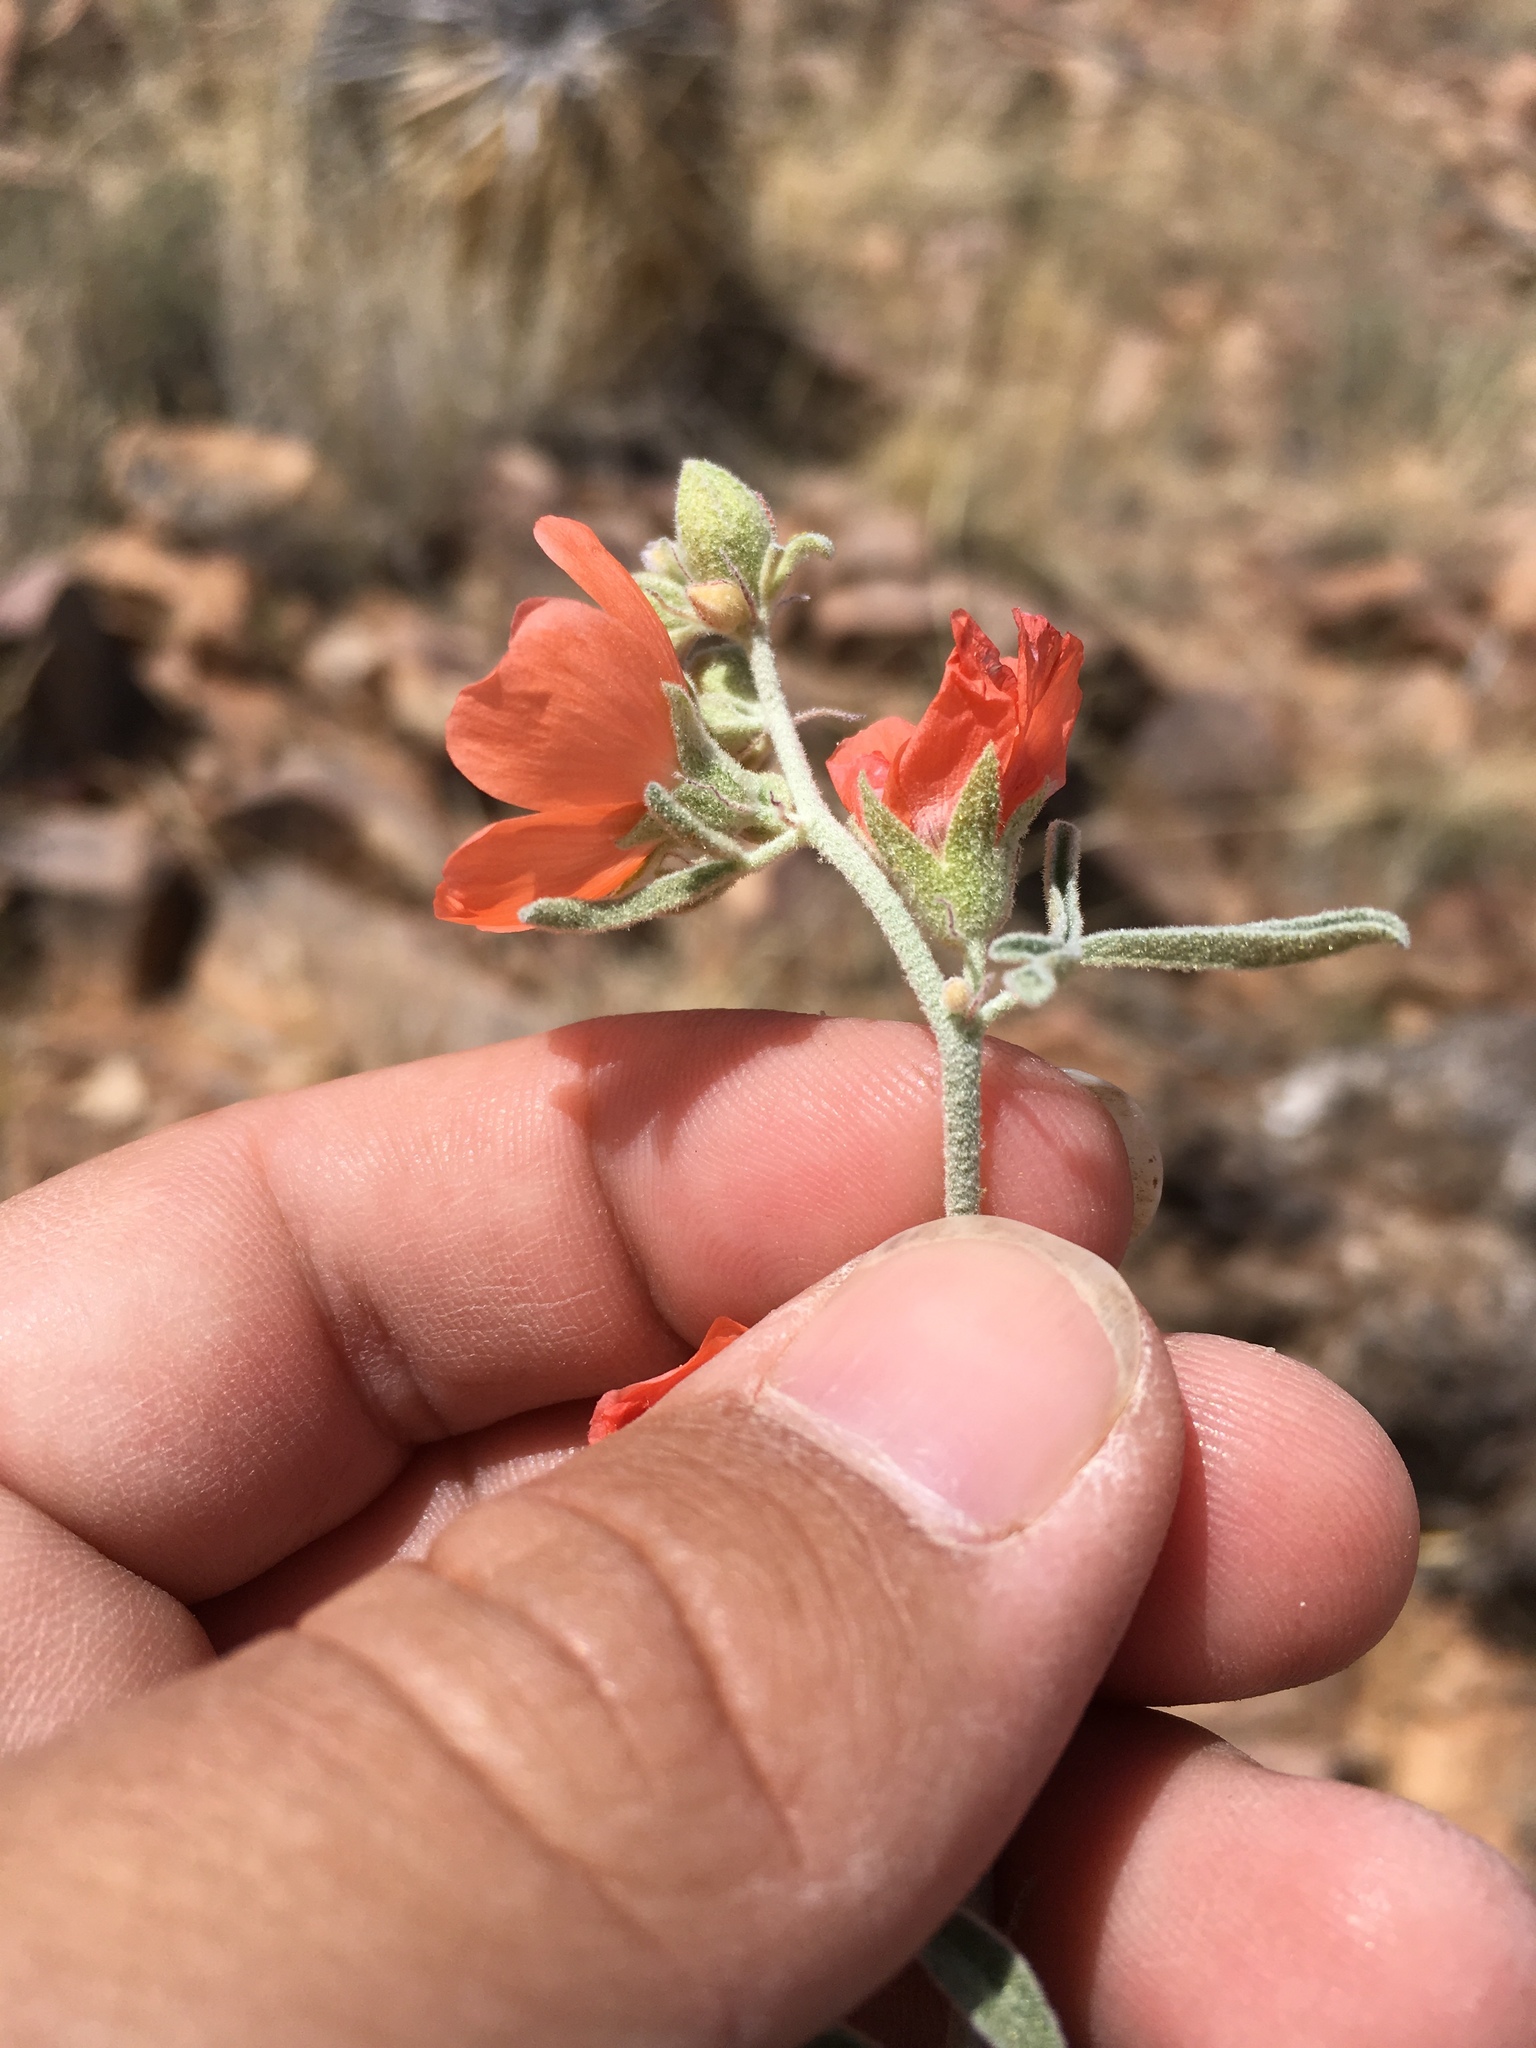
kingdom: Plantae
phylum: Tracheophyta
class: Magnoliopsida
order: Malvales
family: Malvaceae
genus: Sphaeralcea
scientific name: Sphaeralcea hastulata
